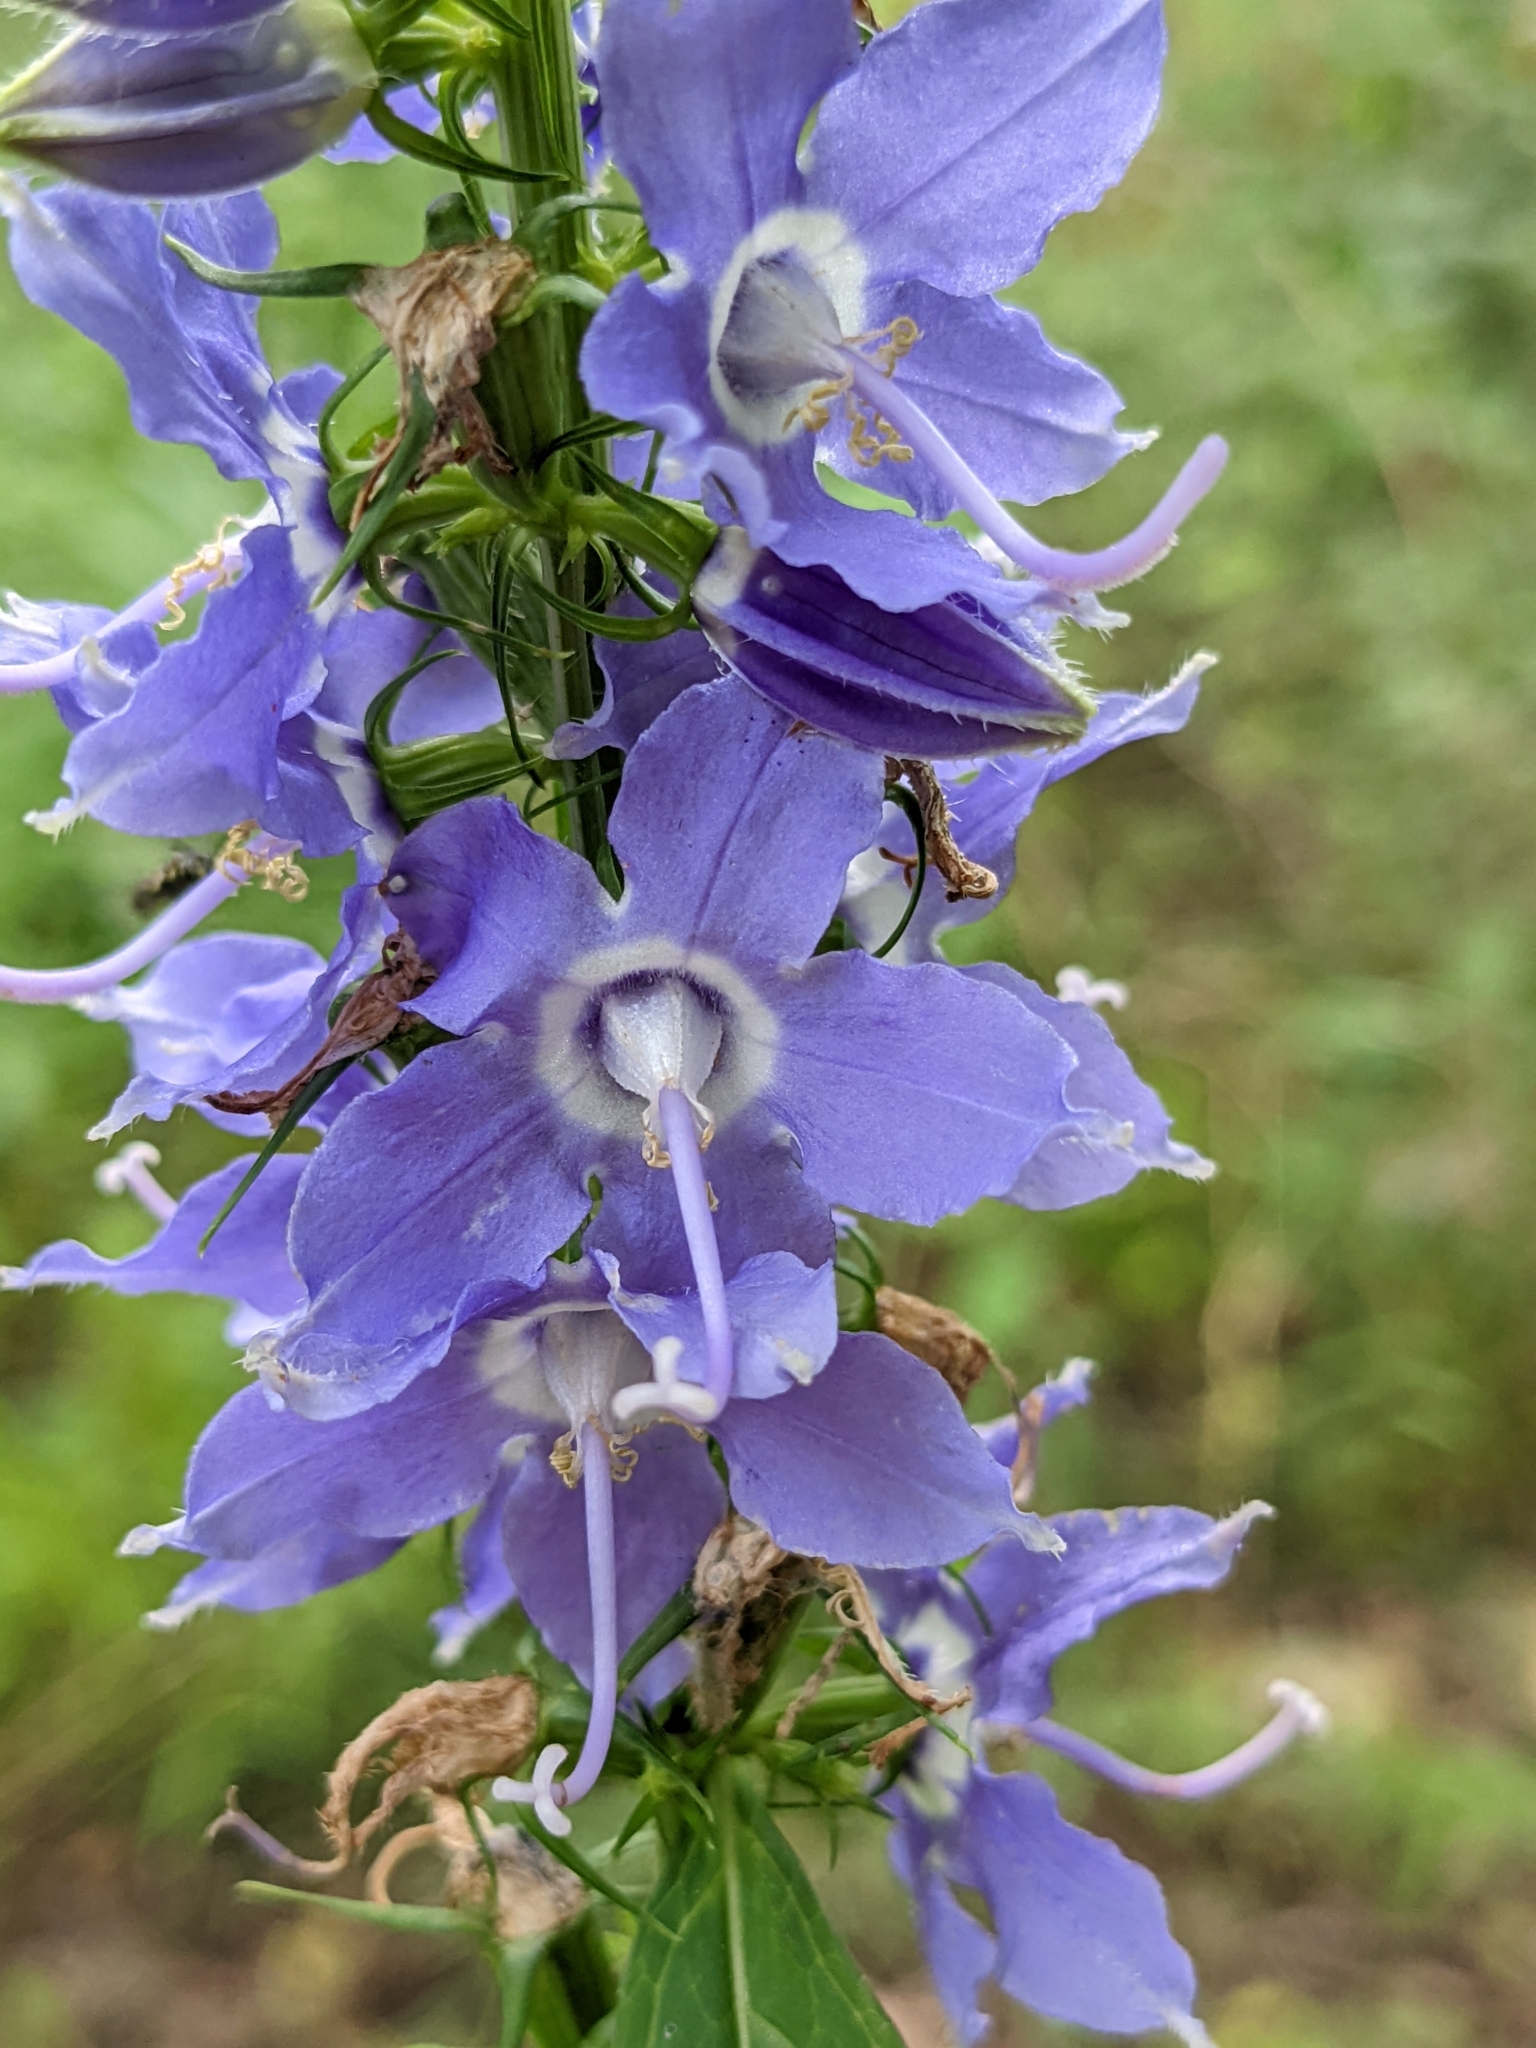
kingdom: Plantae
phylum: Tracheophyta
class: Magnoliopsida
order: Asterales
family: Campanulaceae
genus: Campanulastrum
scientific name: Campanulastrum americanum
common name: American bellflower
